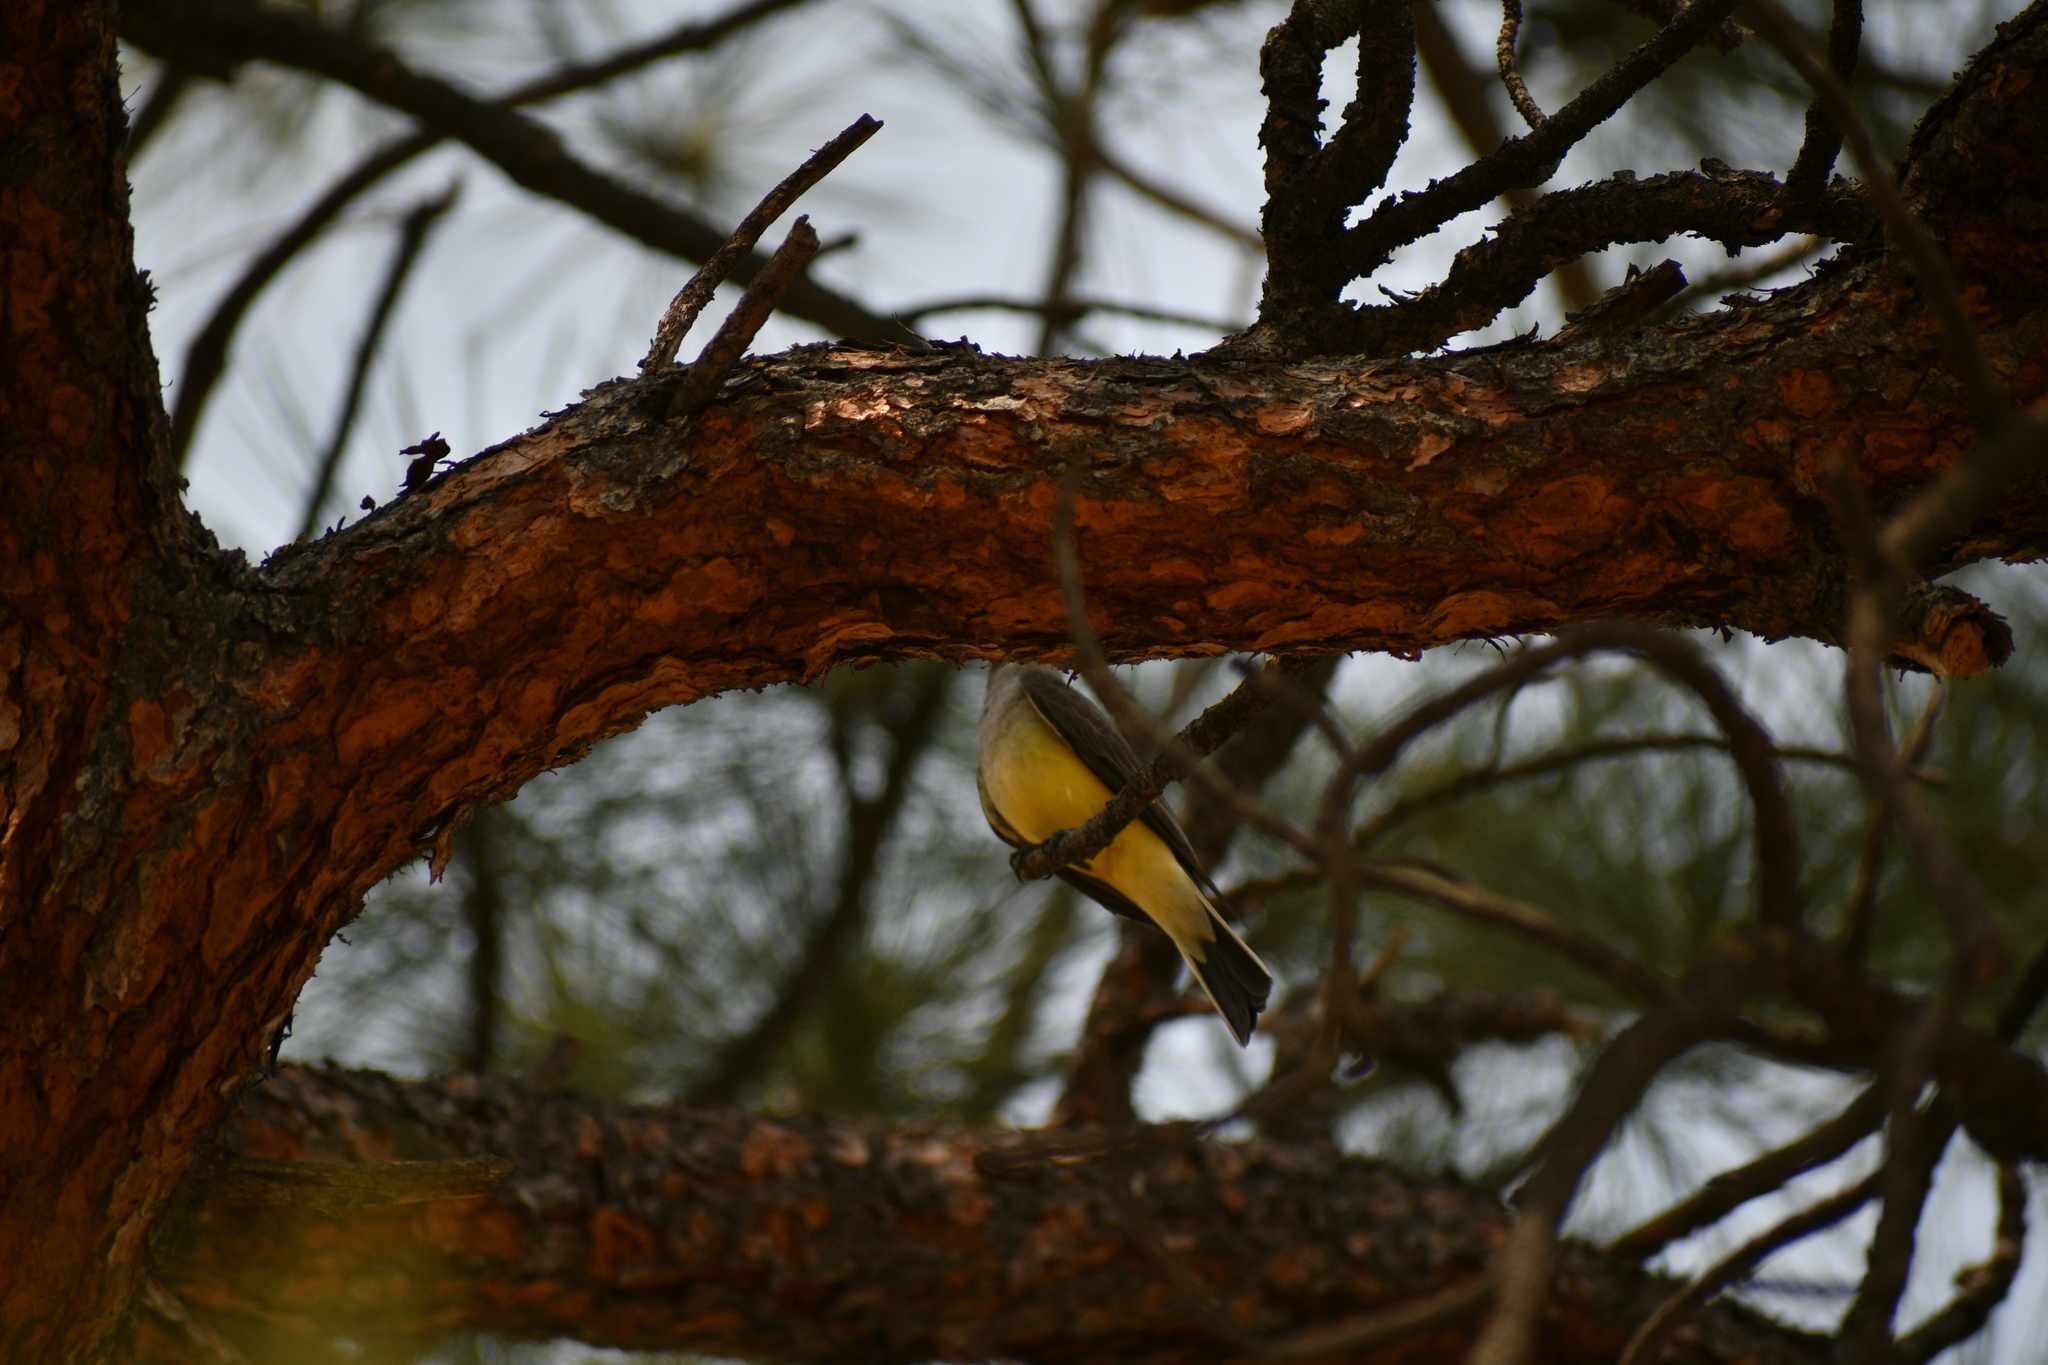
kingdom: Animalia
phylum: Chordata
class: Aves
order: Passeriformes
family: Tyrannidae
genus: Tyrannus
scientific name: Tyrannus verticalis
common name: Western kingbird
